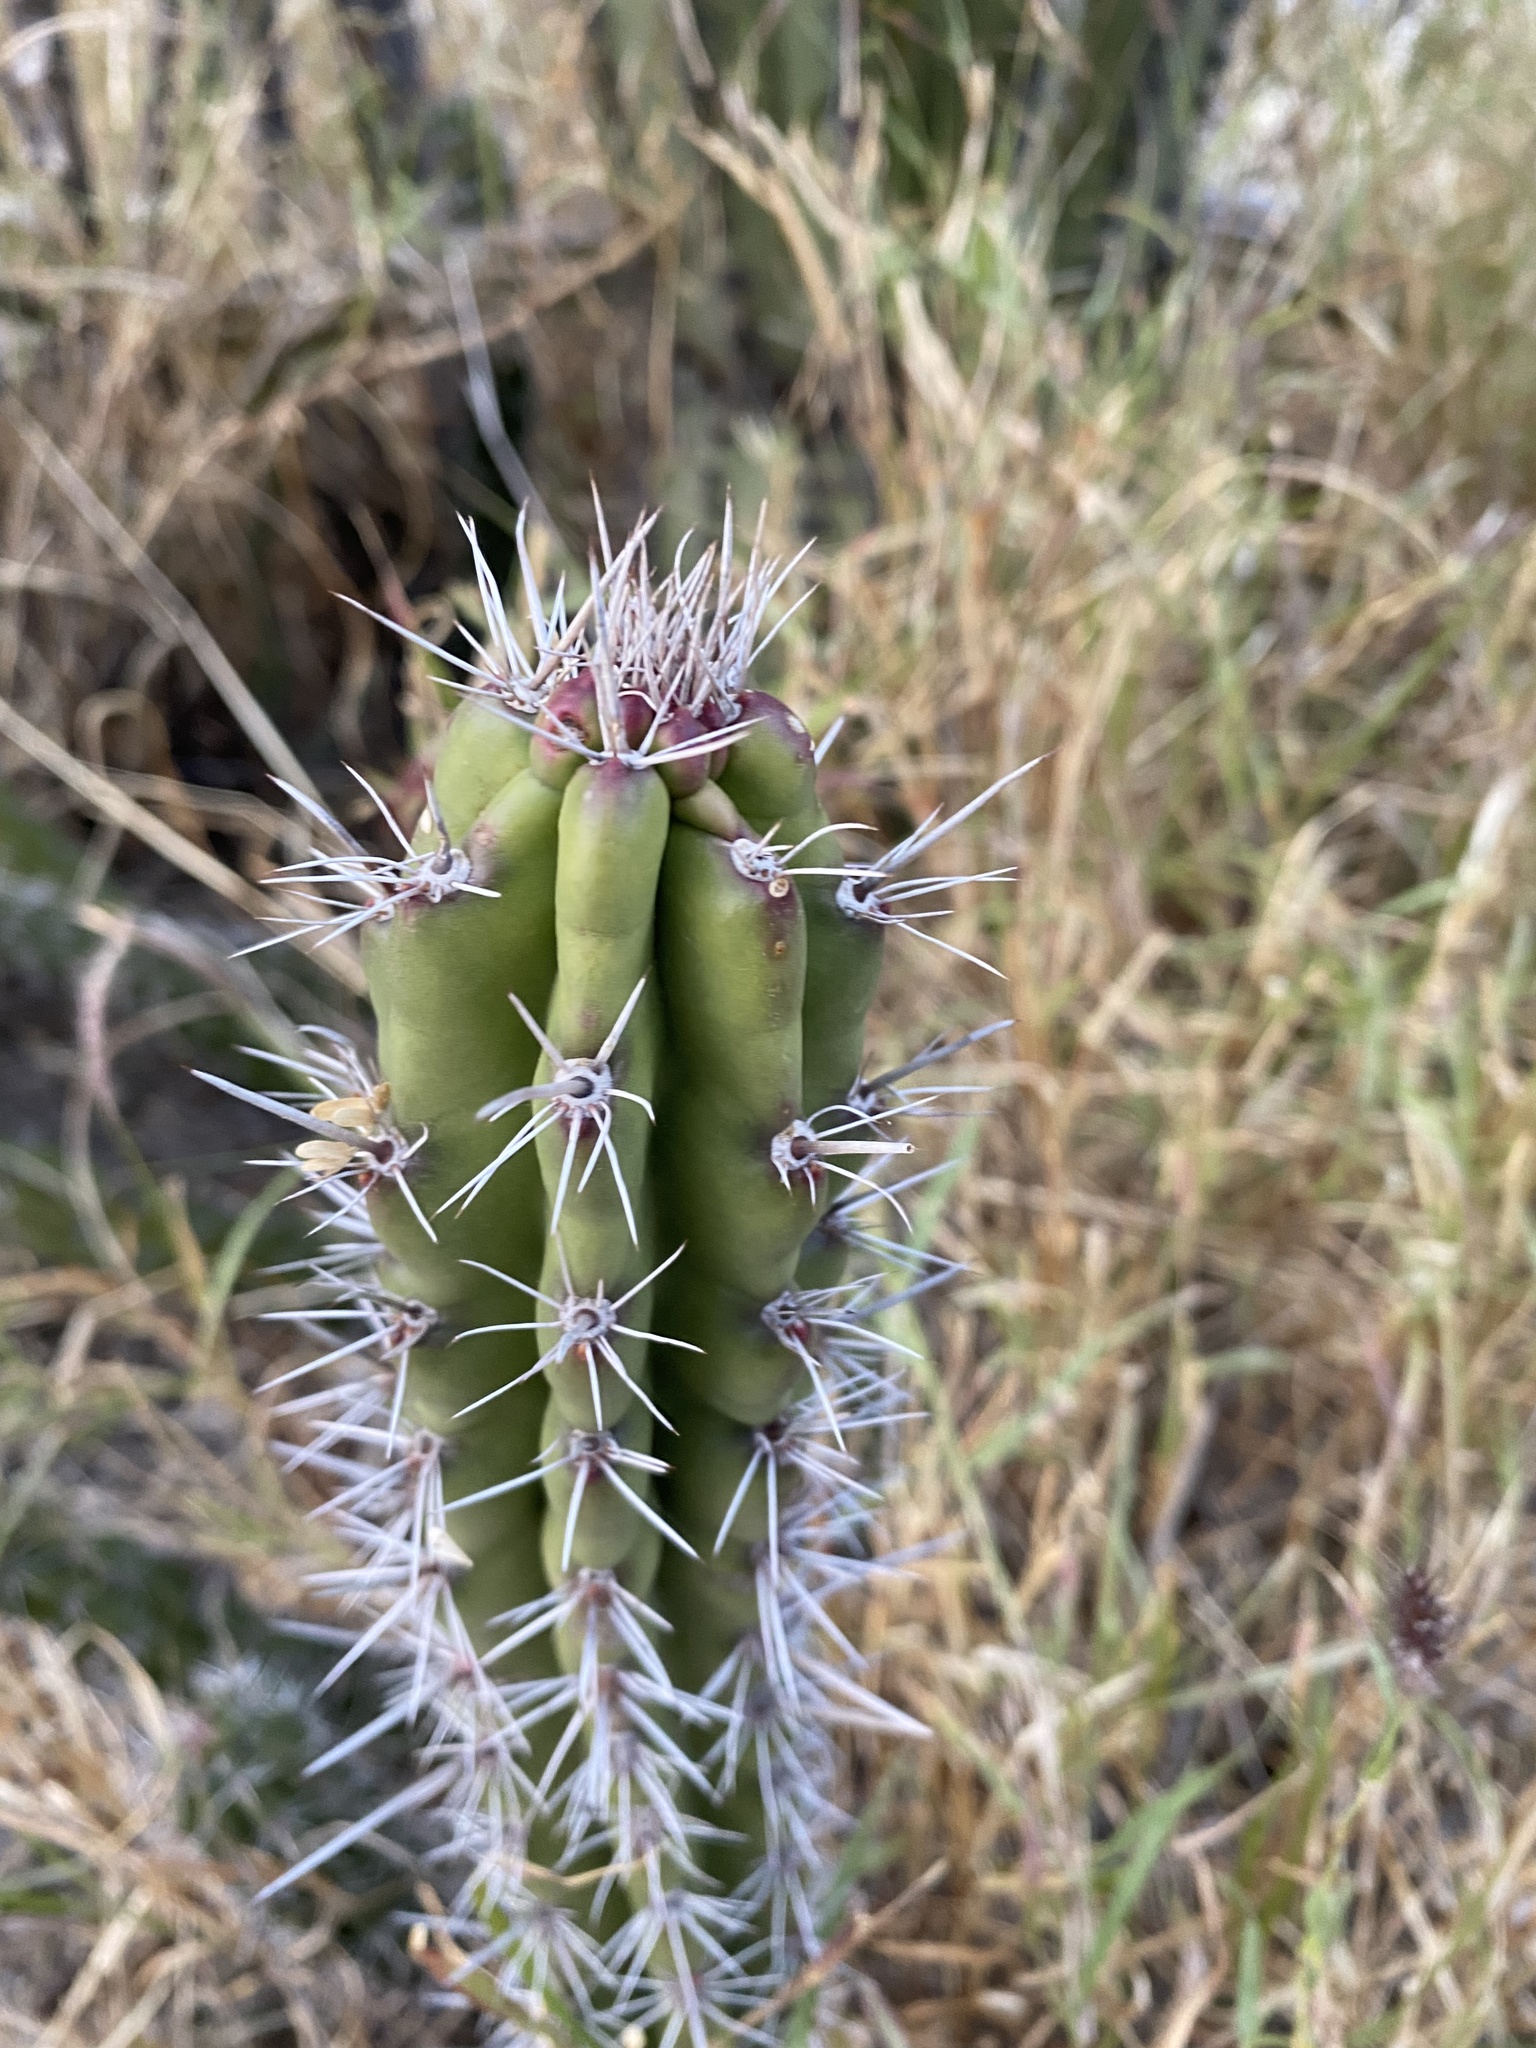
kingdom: Plantae
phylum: Tracheophyta
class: Magnoliopsida
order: Caryophyllales
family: Cactaceae
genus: Stenocereus
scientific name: Stenocereus alamosensis
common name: Octopus cactus
